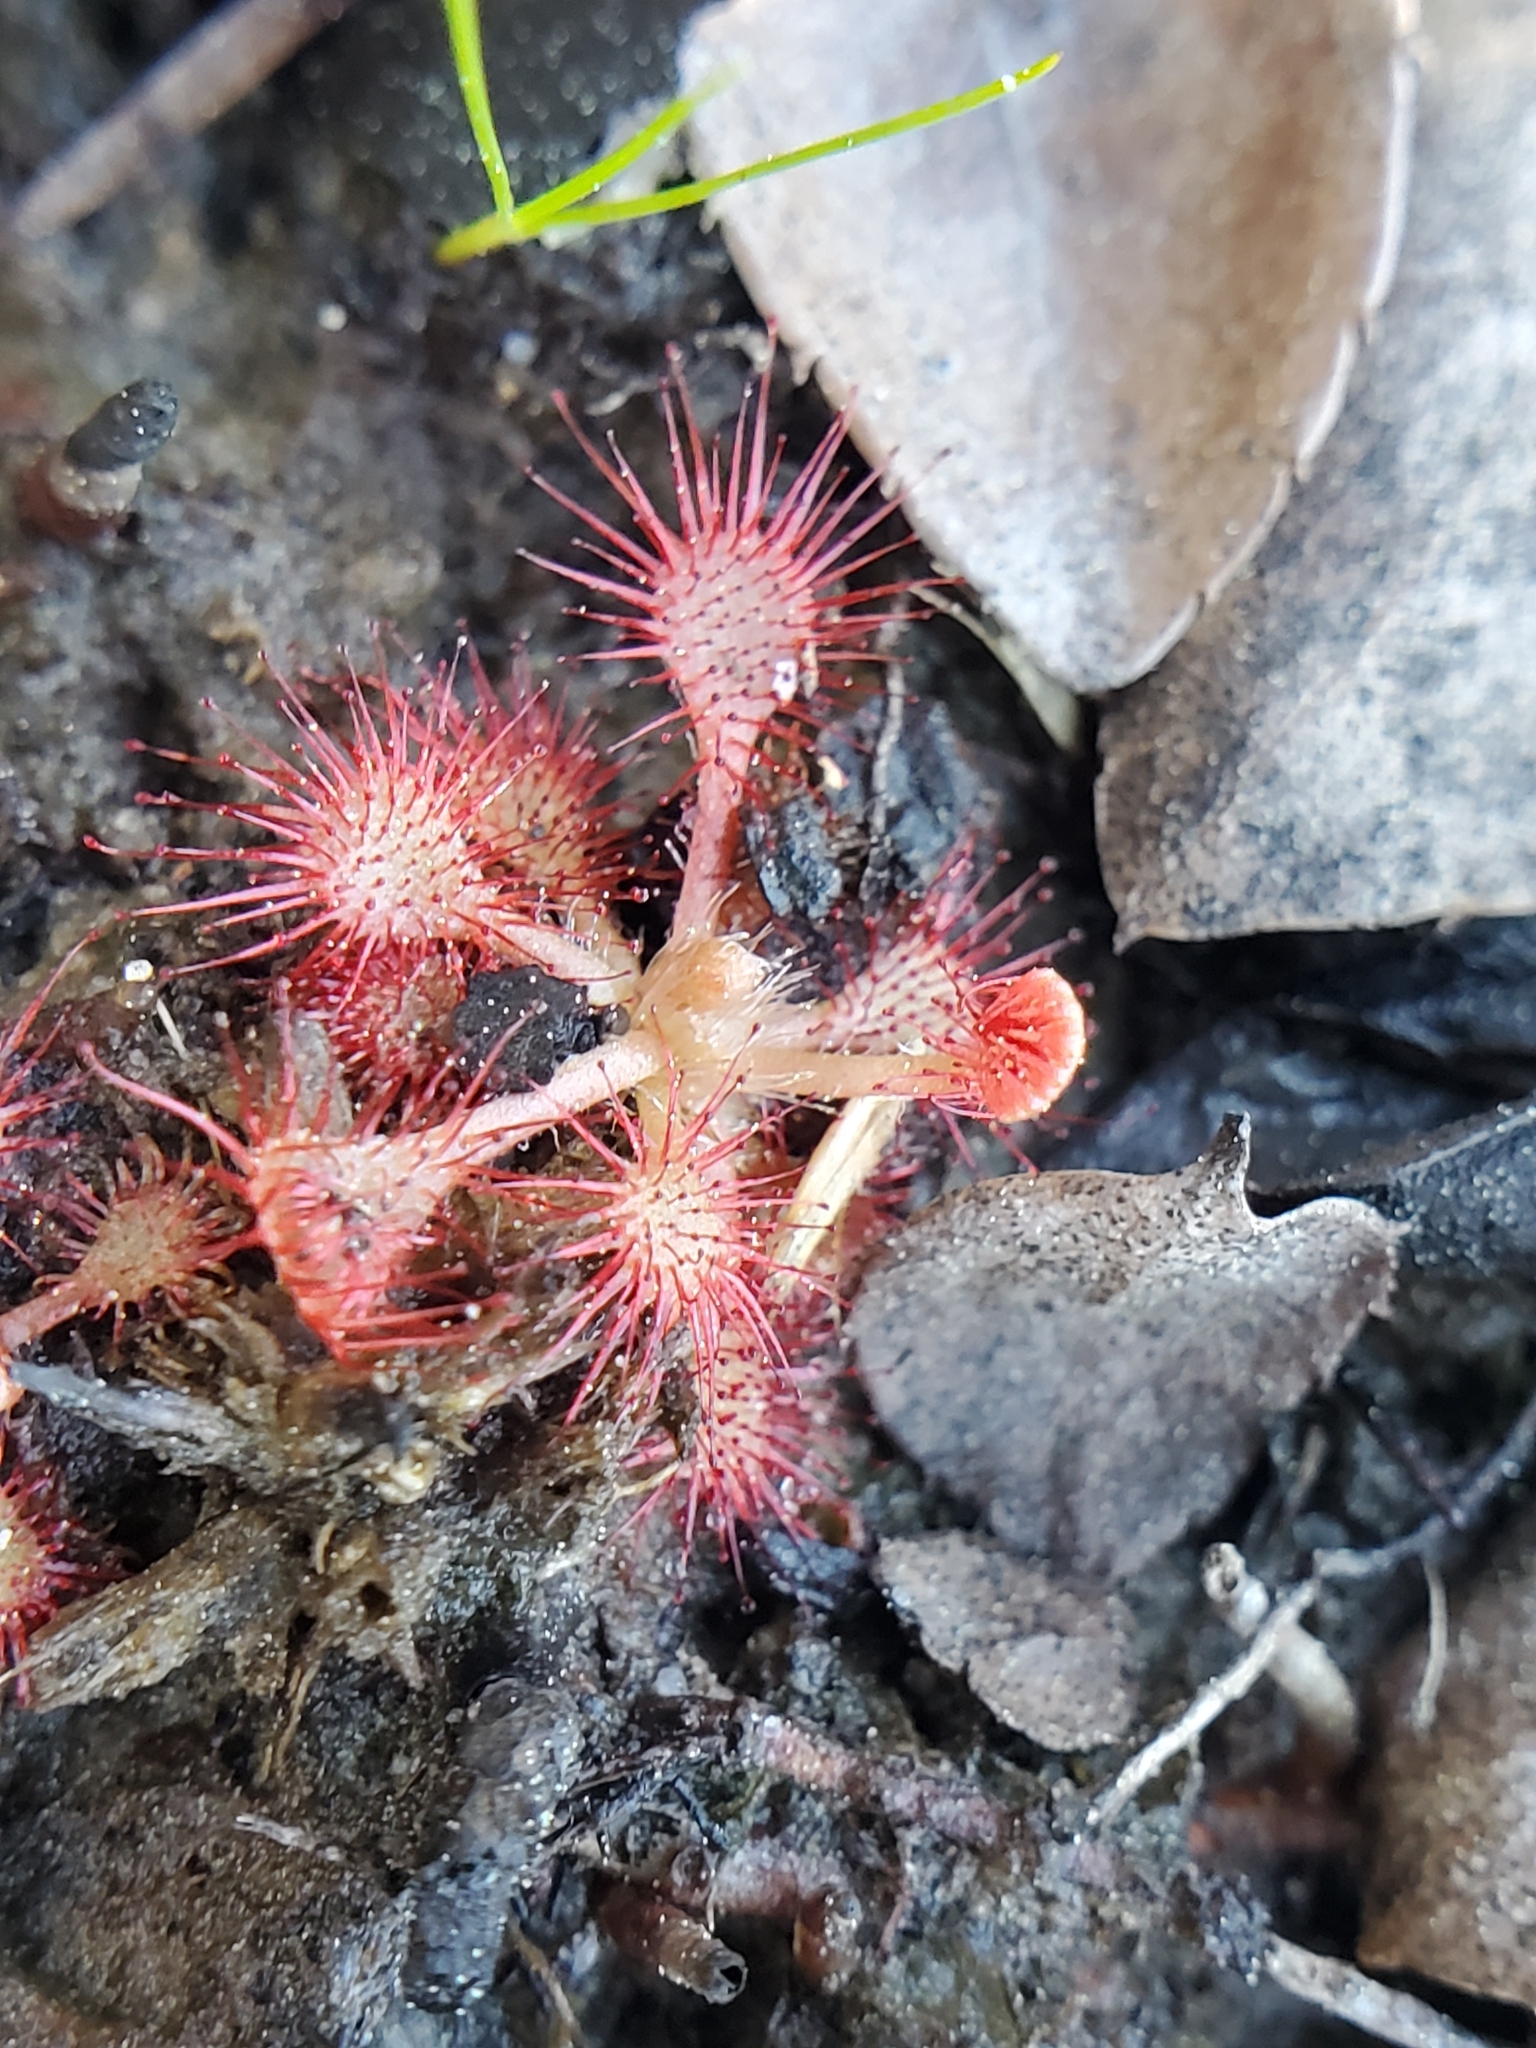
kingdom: Plantae
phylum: Tracheophyta
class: Magnoliopsida
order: Caryophyllales
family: Droseraceae
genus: Drosera
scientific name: Drosera capillaris
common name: Pink sundew
